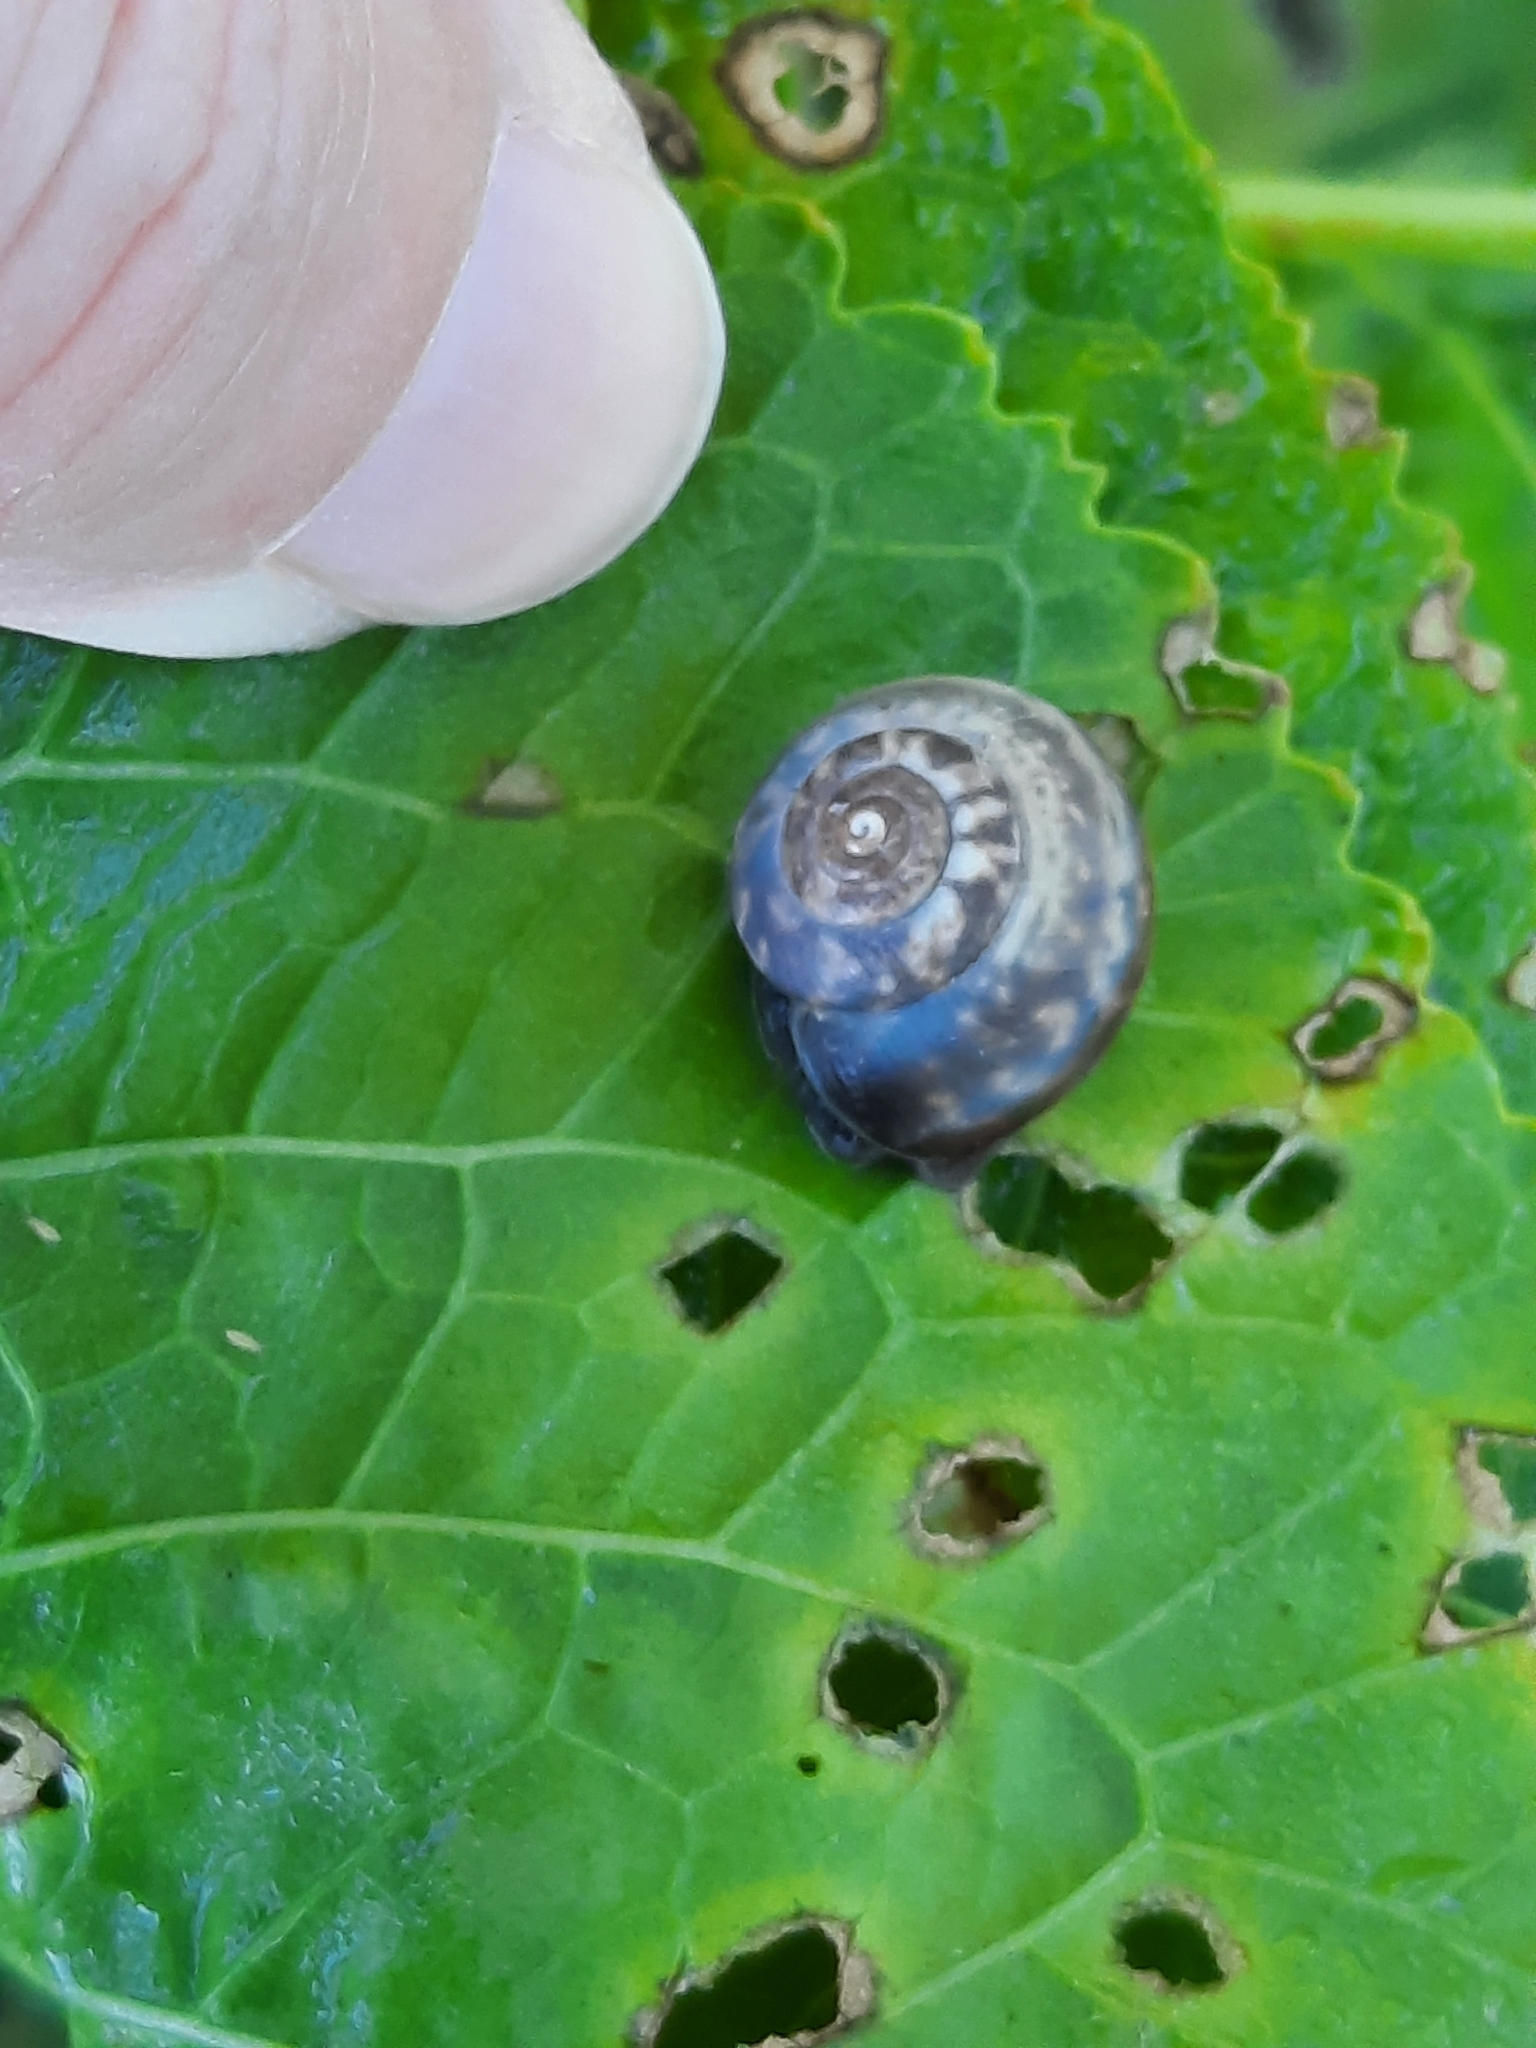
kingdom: Animalia
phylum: Mollusca
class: Gastropoda
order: Stylommatophora
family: Hygromiidae
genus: Monacha
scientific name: Monacha cantiana
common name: Kentish snail
